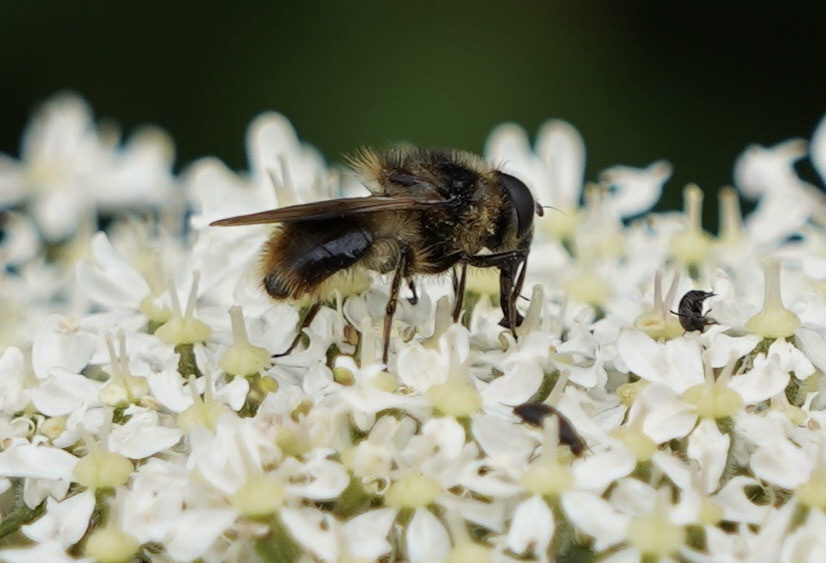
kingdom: Animalia
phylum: Arthropoda
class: Insecta
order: Diptera
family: Syrphidae
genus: Cheilosia
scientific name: Cheilosia illustrata
